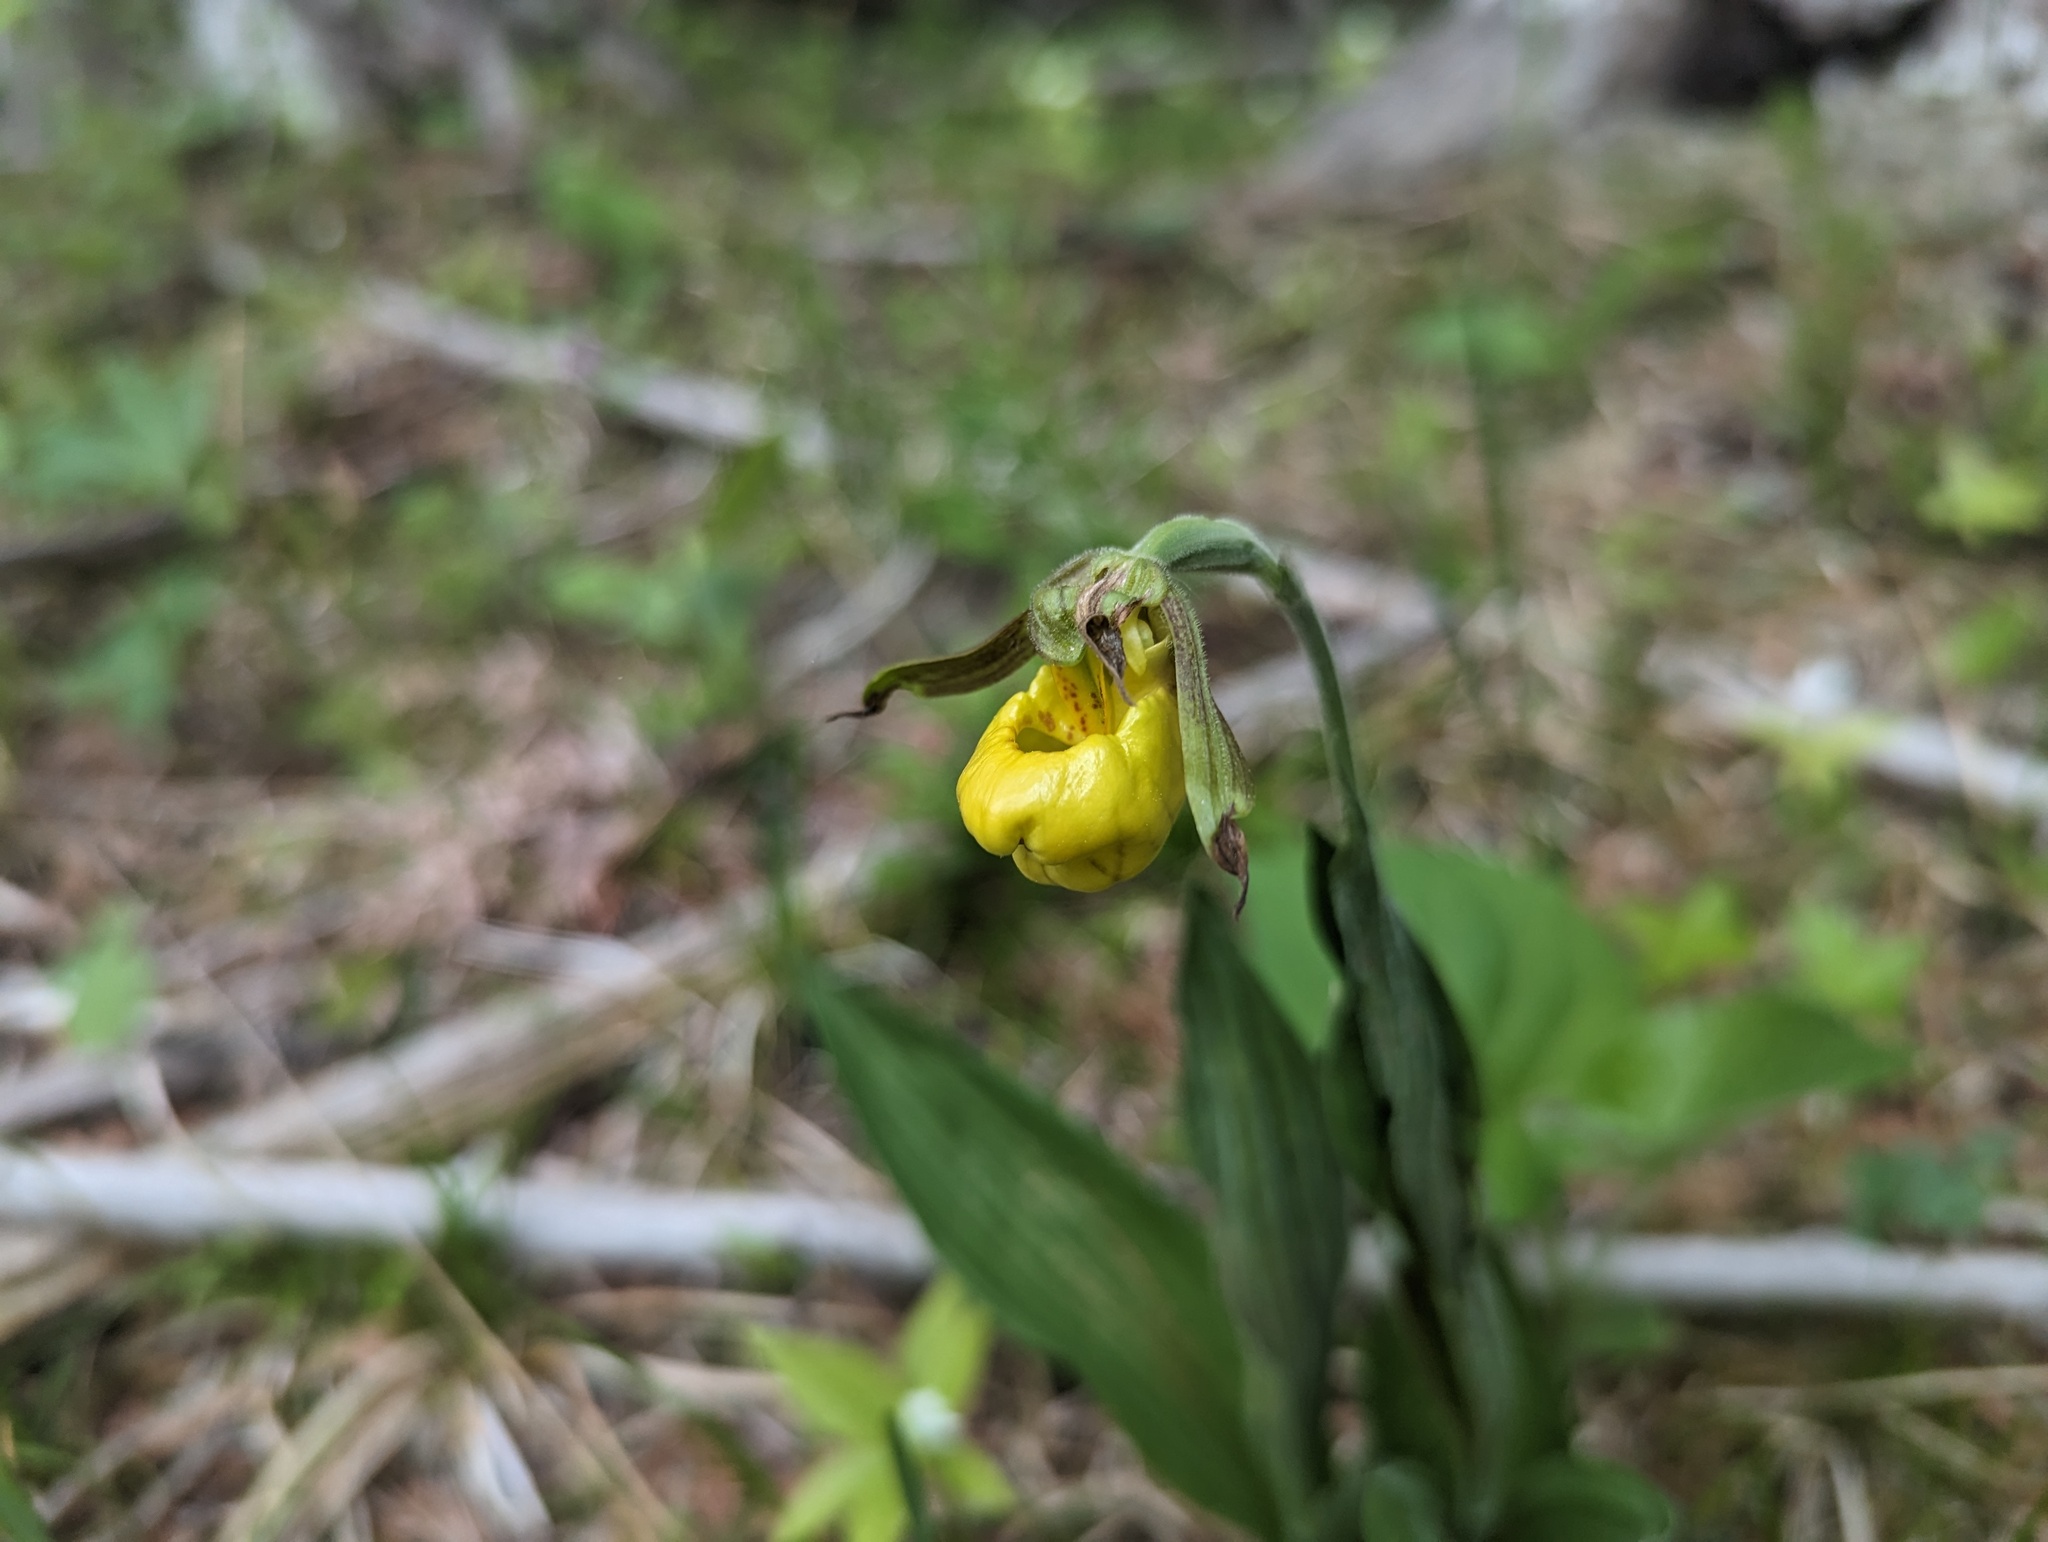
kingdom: Plantae
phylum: Tracheophyta
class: Liliopsida
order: Asparagales
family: Orchidaceae
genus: Cypripedium
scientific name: Cypripedium parviflorum
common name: American yellow lady's-slipper
